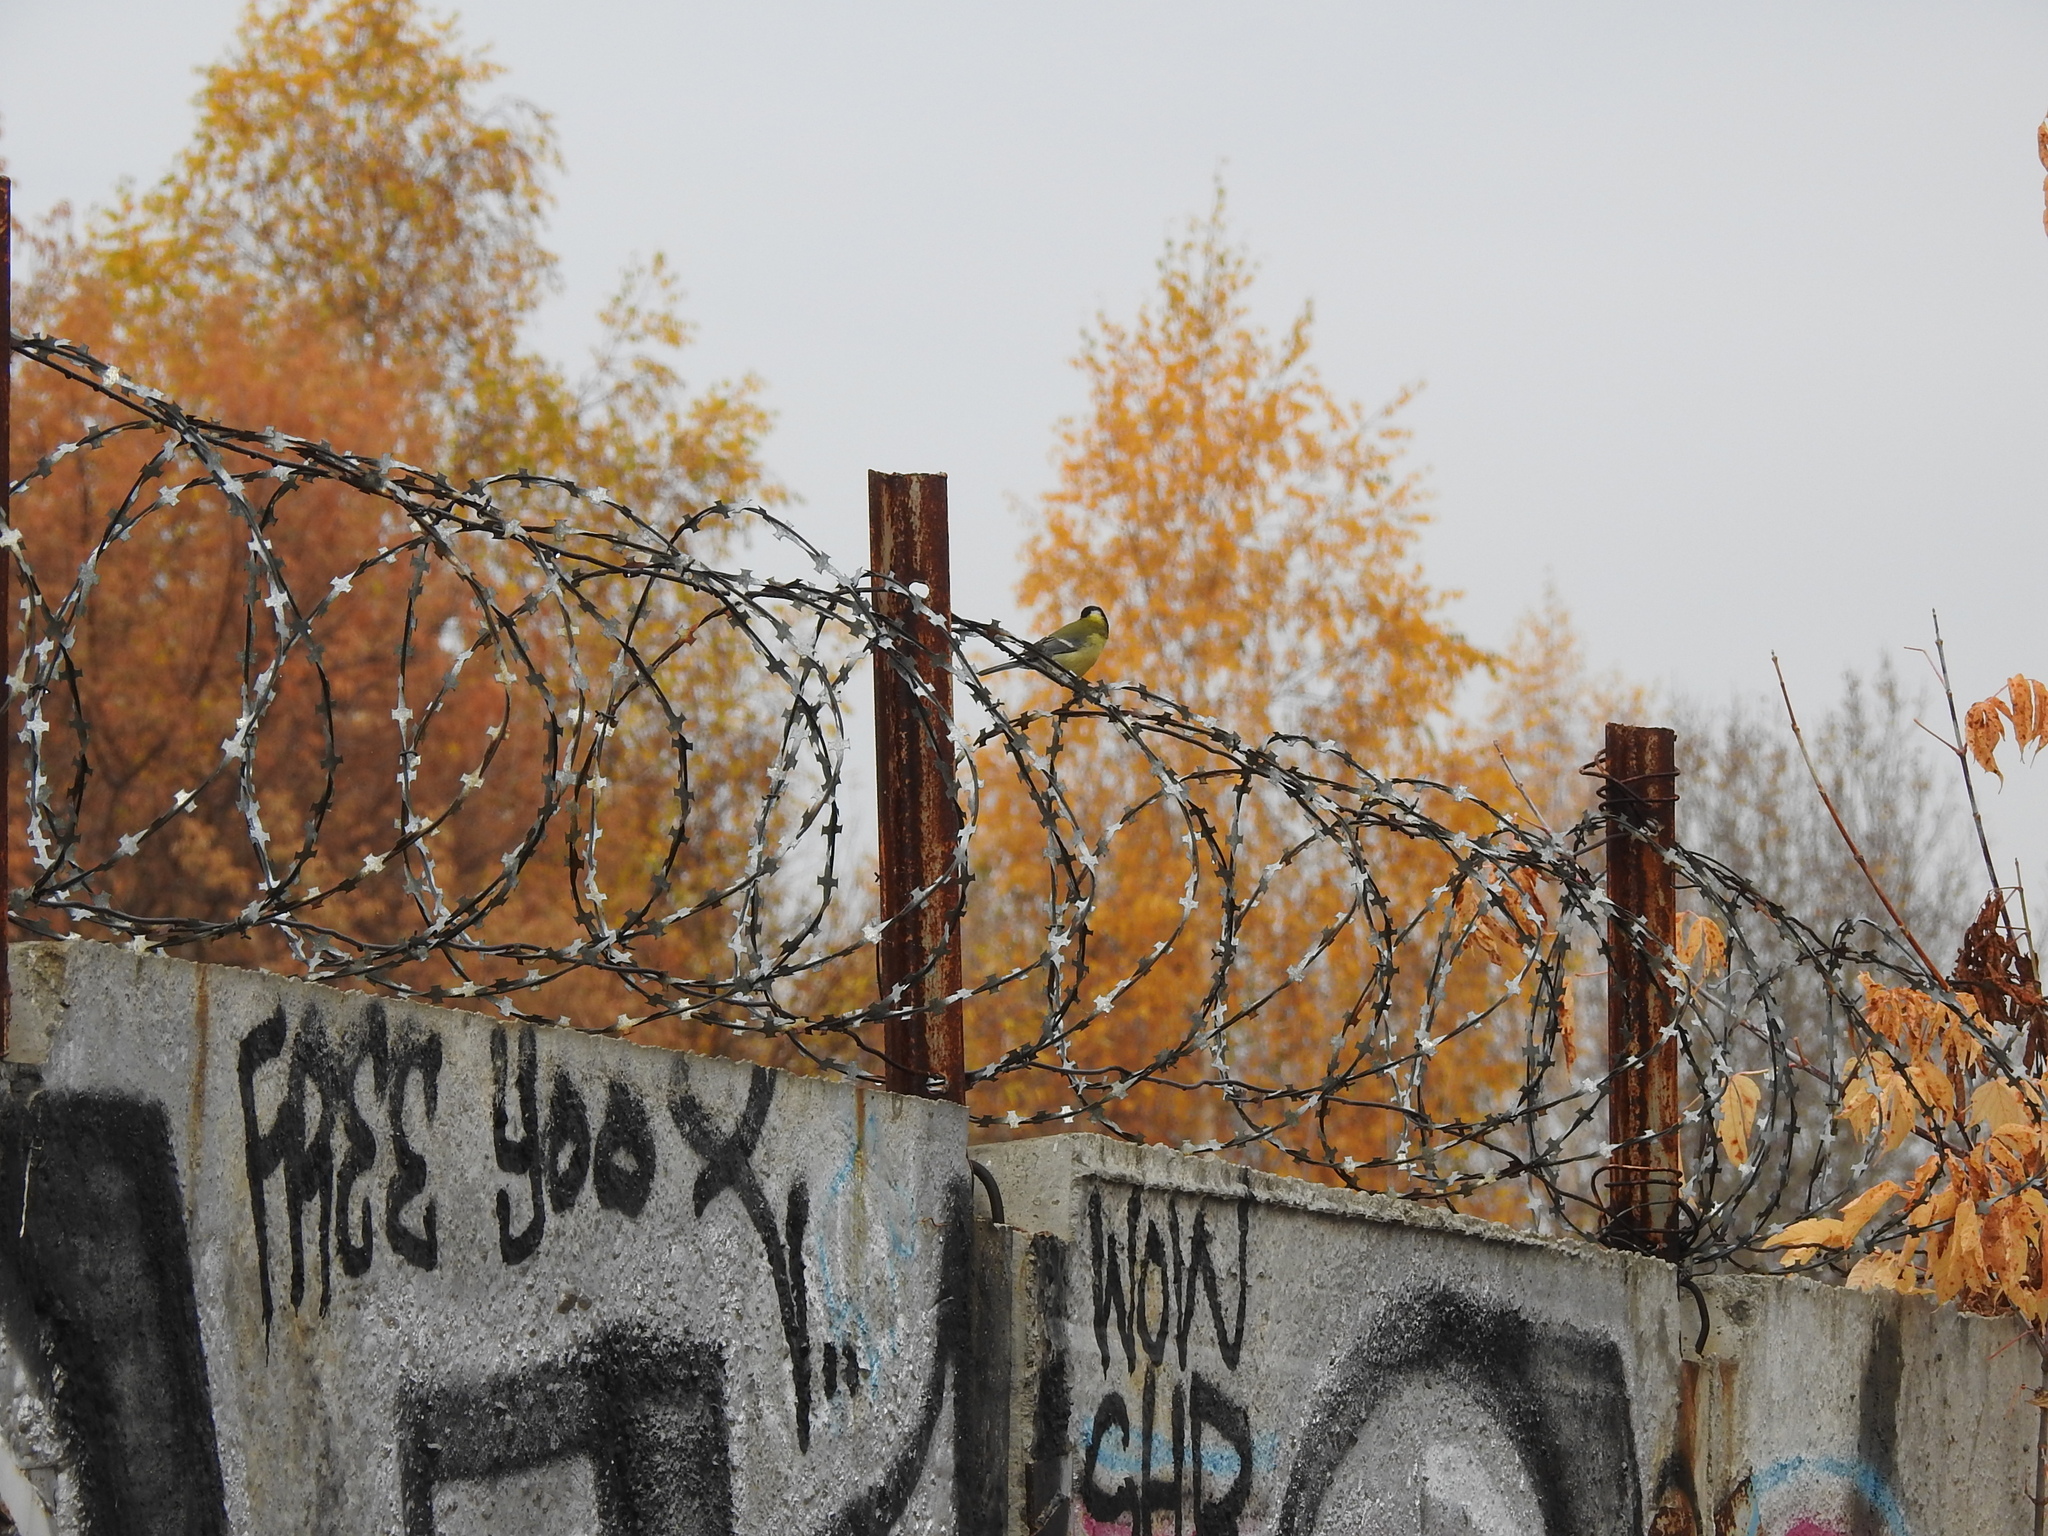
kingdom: Animalia
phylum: Chordata
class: Aves
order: Passeriformes
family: Paridae
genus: Parus
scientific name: Parus major
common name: Great tit
